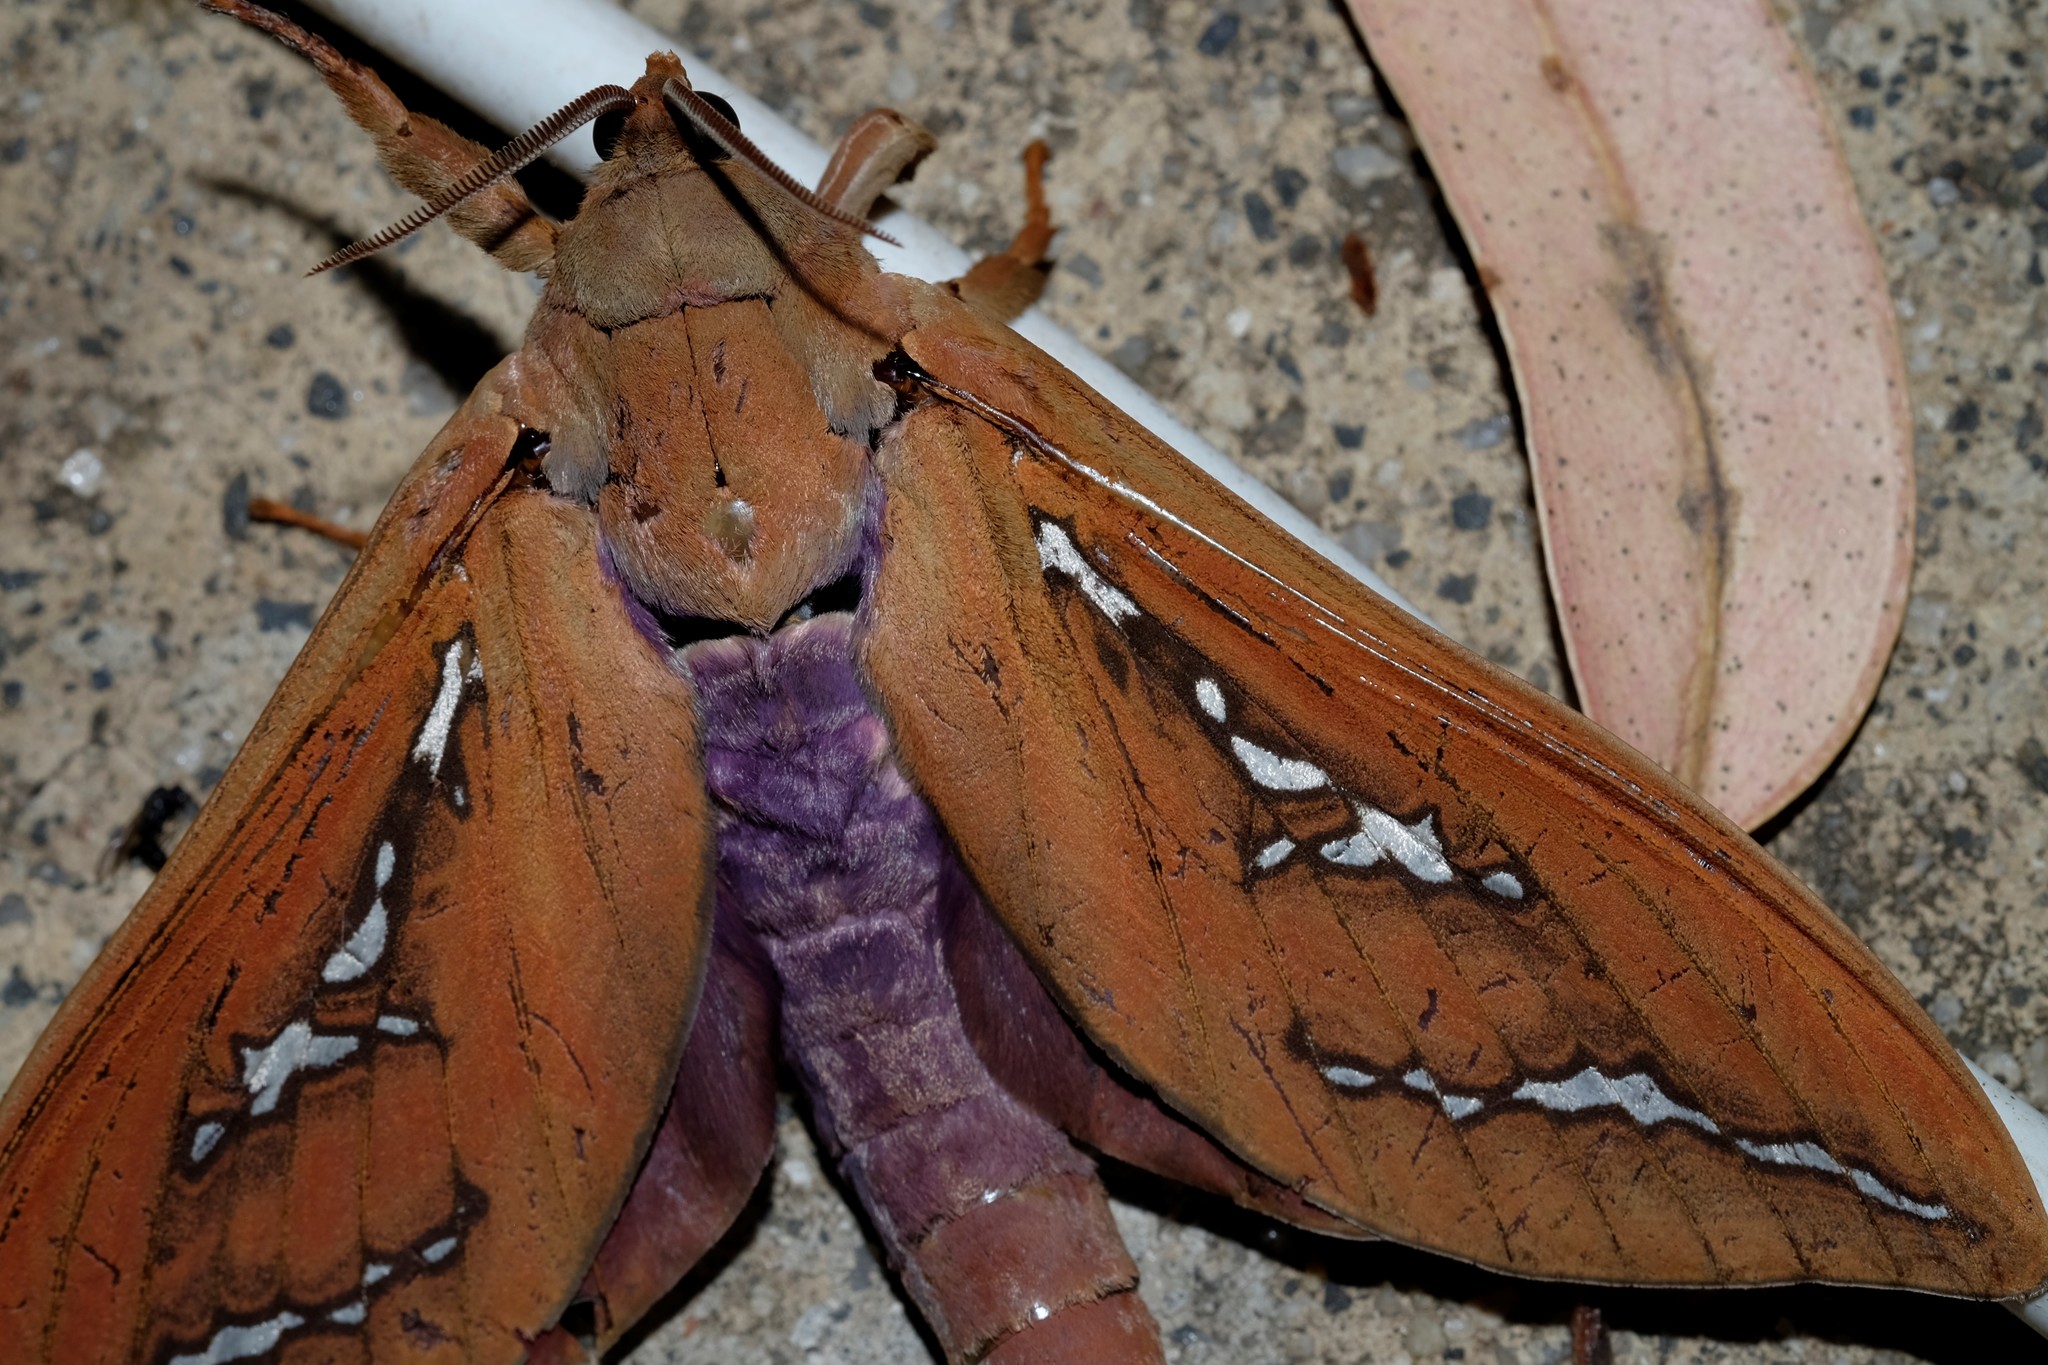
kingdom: Animalia
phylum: Arthropoda
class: Insecta
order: Lepidoptera
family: Hepialidae
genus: Abantiades
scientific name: Abantiades hyalinatus
